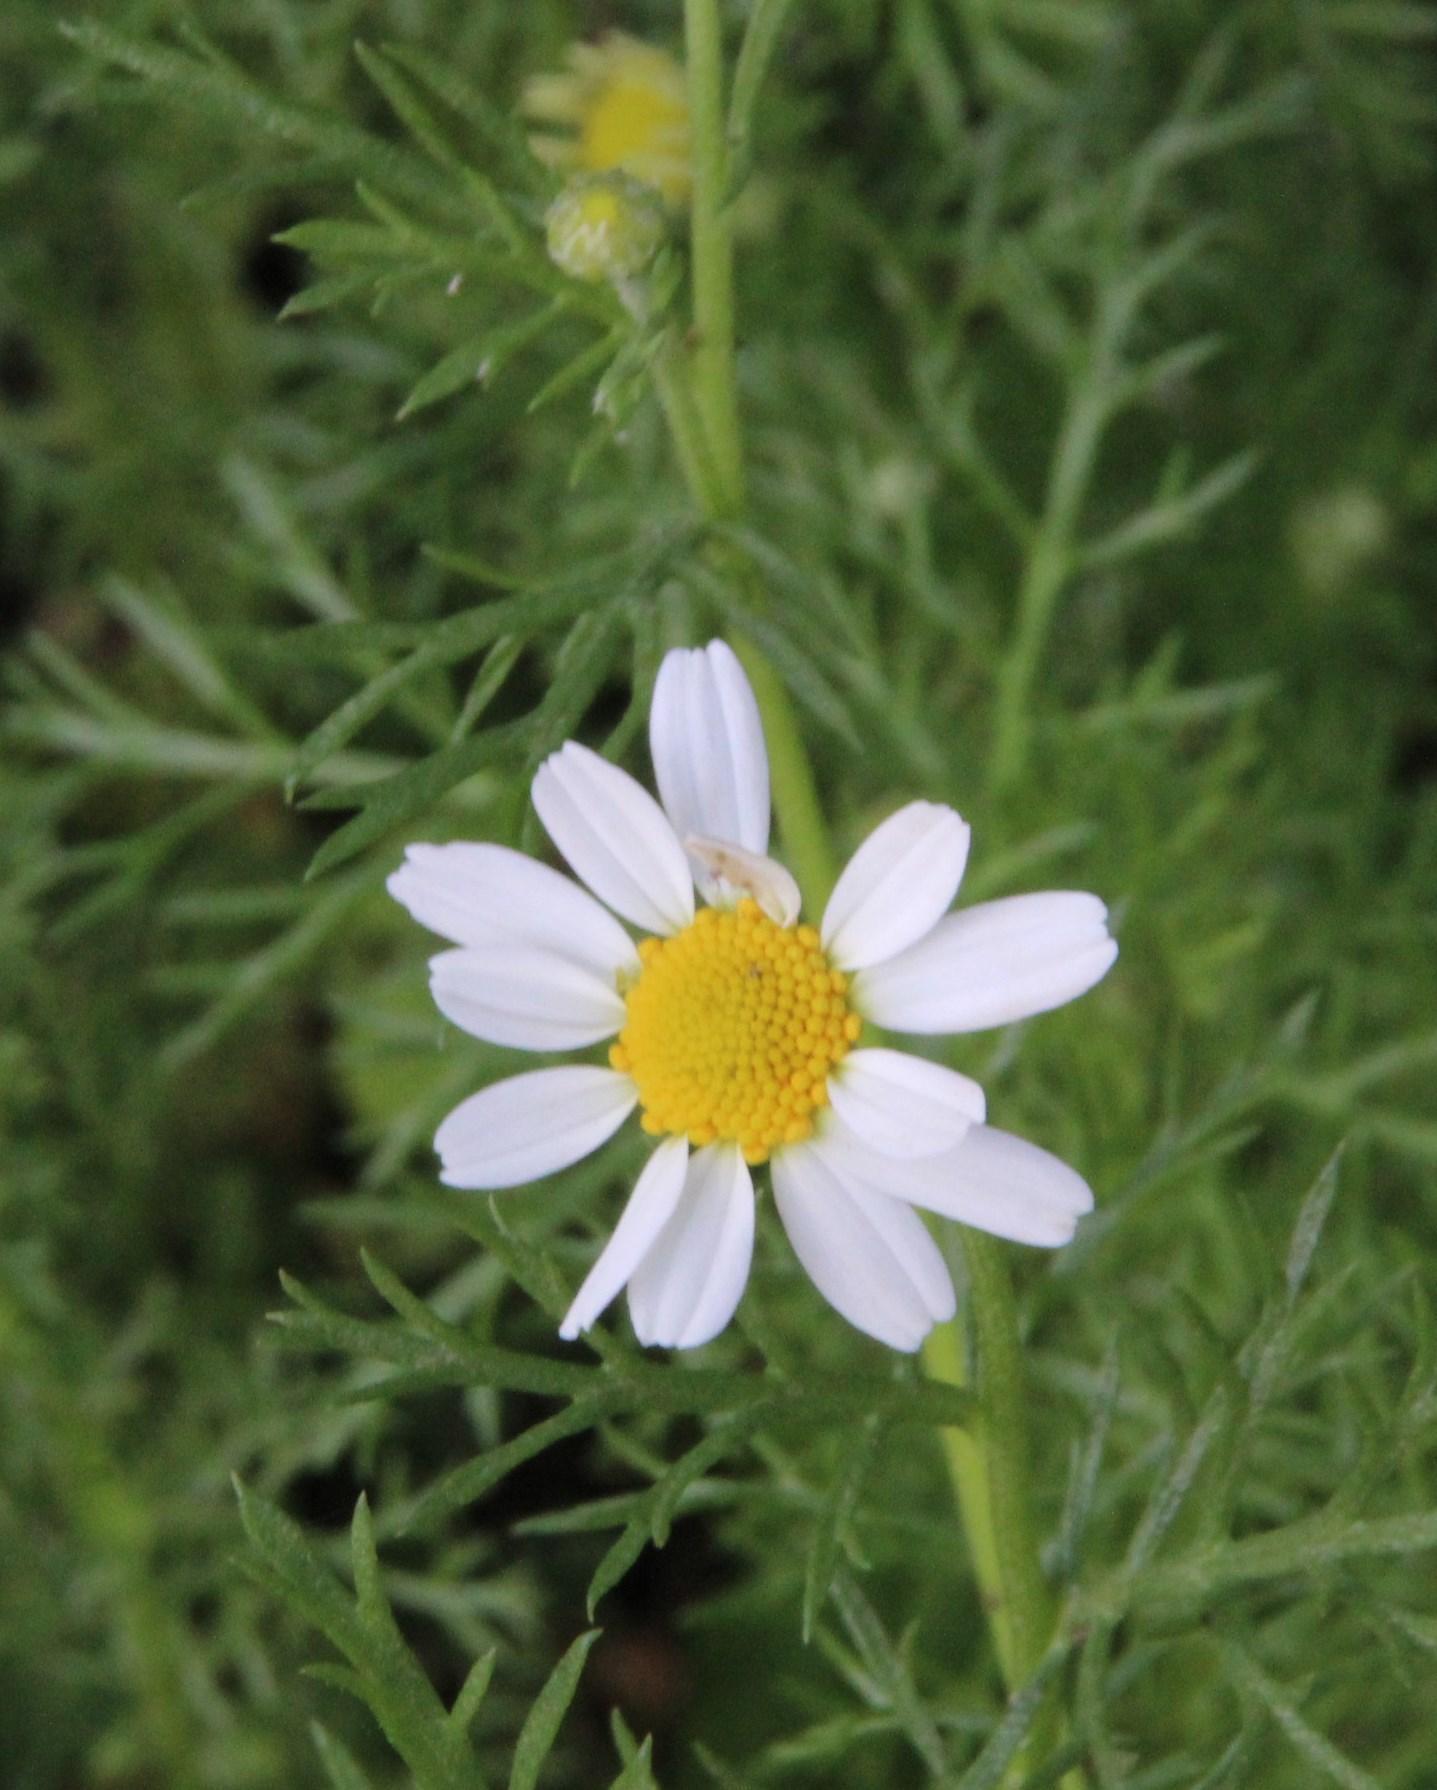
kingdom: Plantae
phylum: Tracheophyta
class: Magnoliopsida
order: Asterales
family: Asteraceae
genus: Matricaria
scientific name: Matricaria chamomilla
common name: Scented mayweed
